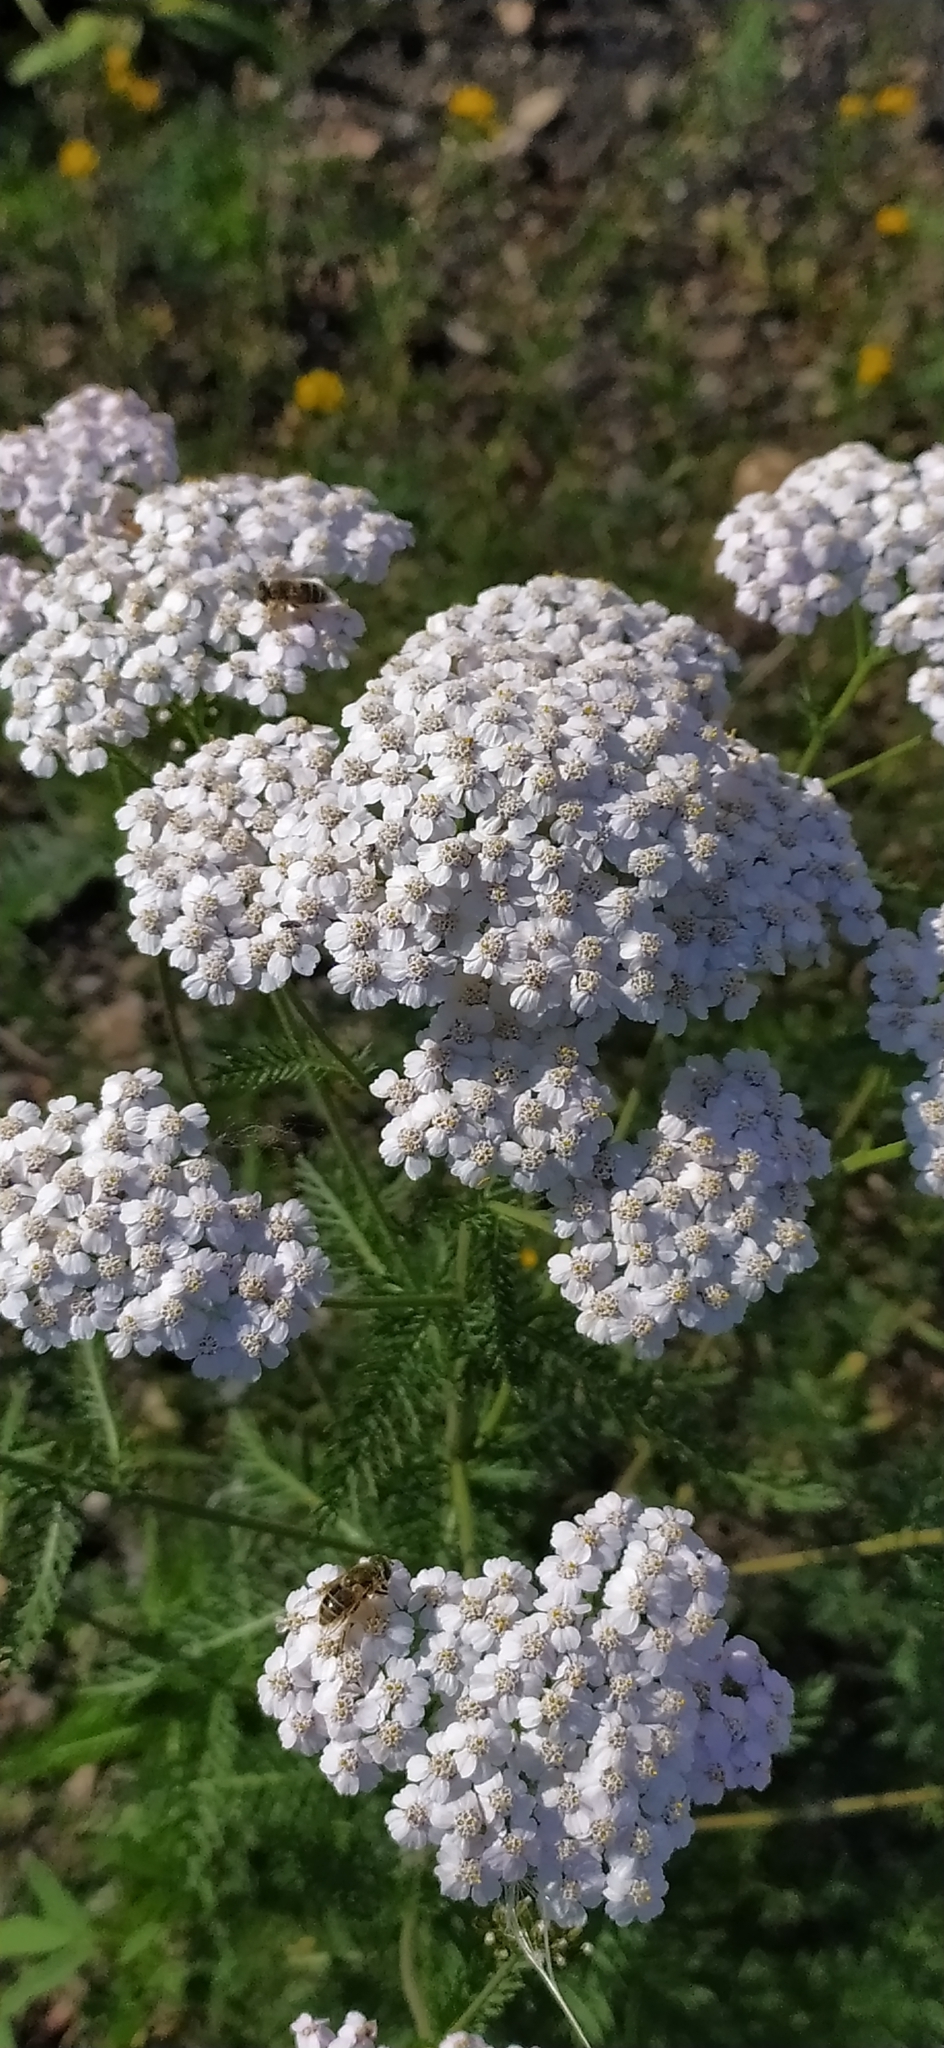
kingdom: Plantae
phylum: Tracheophyta
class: Magnoliopsida
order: Asterales
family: Asteraceae
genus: Achillea
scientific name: Achillea millefolium
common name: Yarrow
